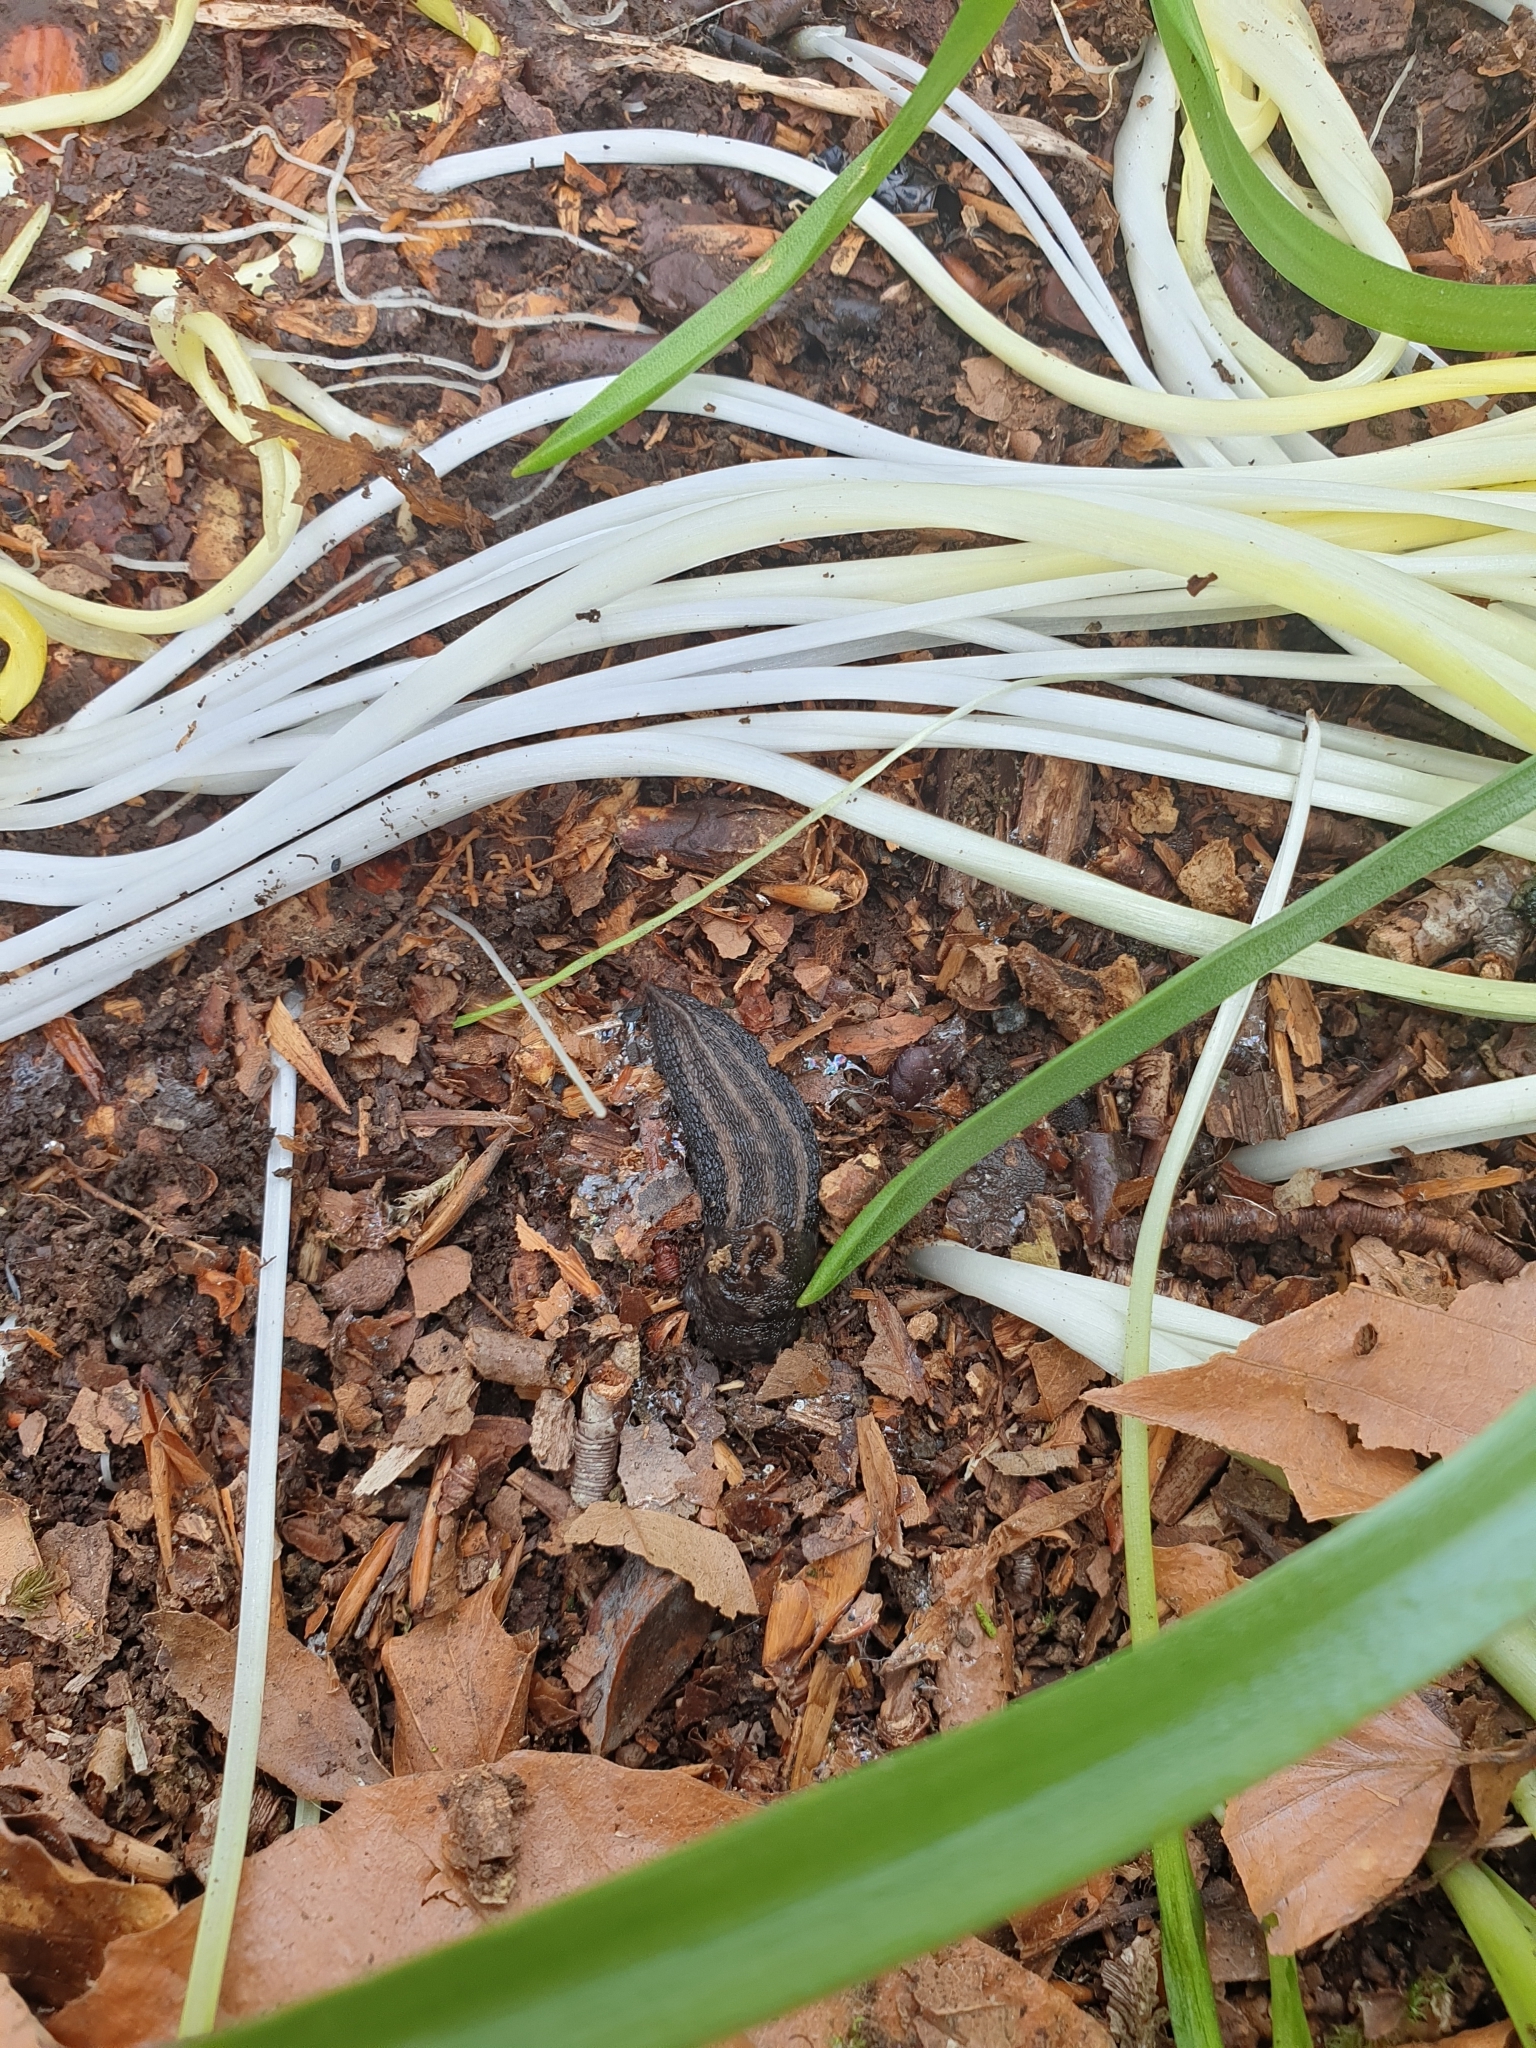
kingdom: Animalia
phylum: Mollusca
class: Gastropoda
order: Stylommatophora
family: Limacidae
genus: Limax
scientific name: Limax maximus
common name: Great grey slug
